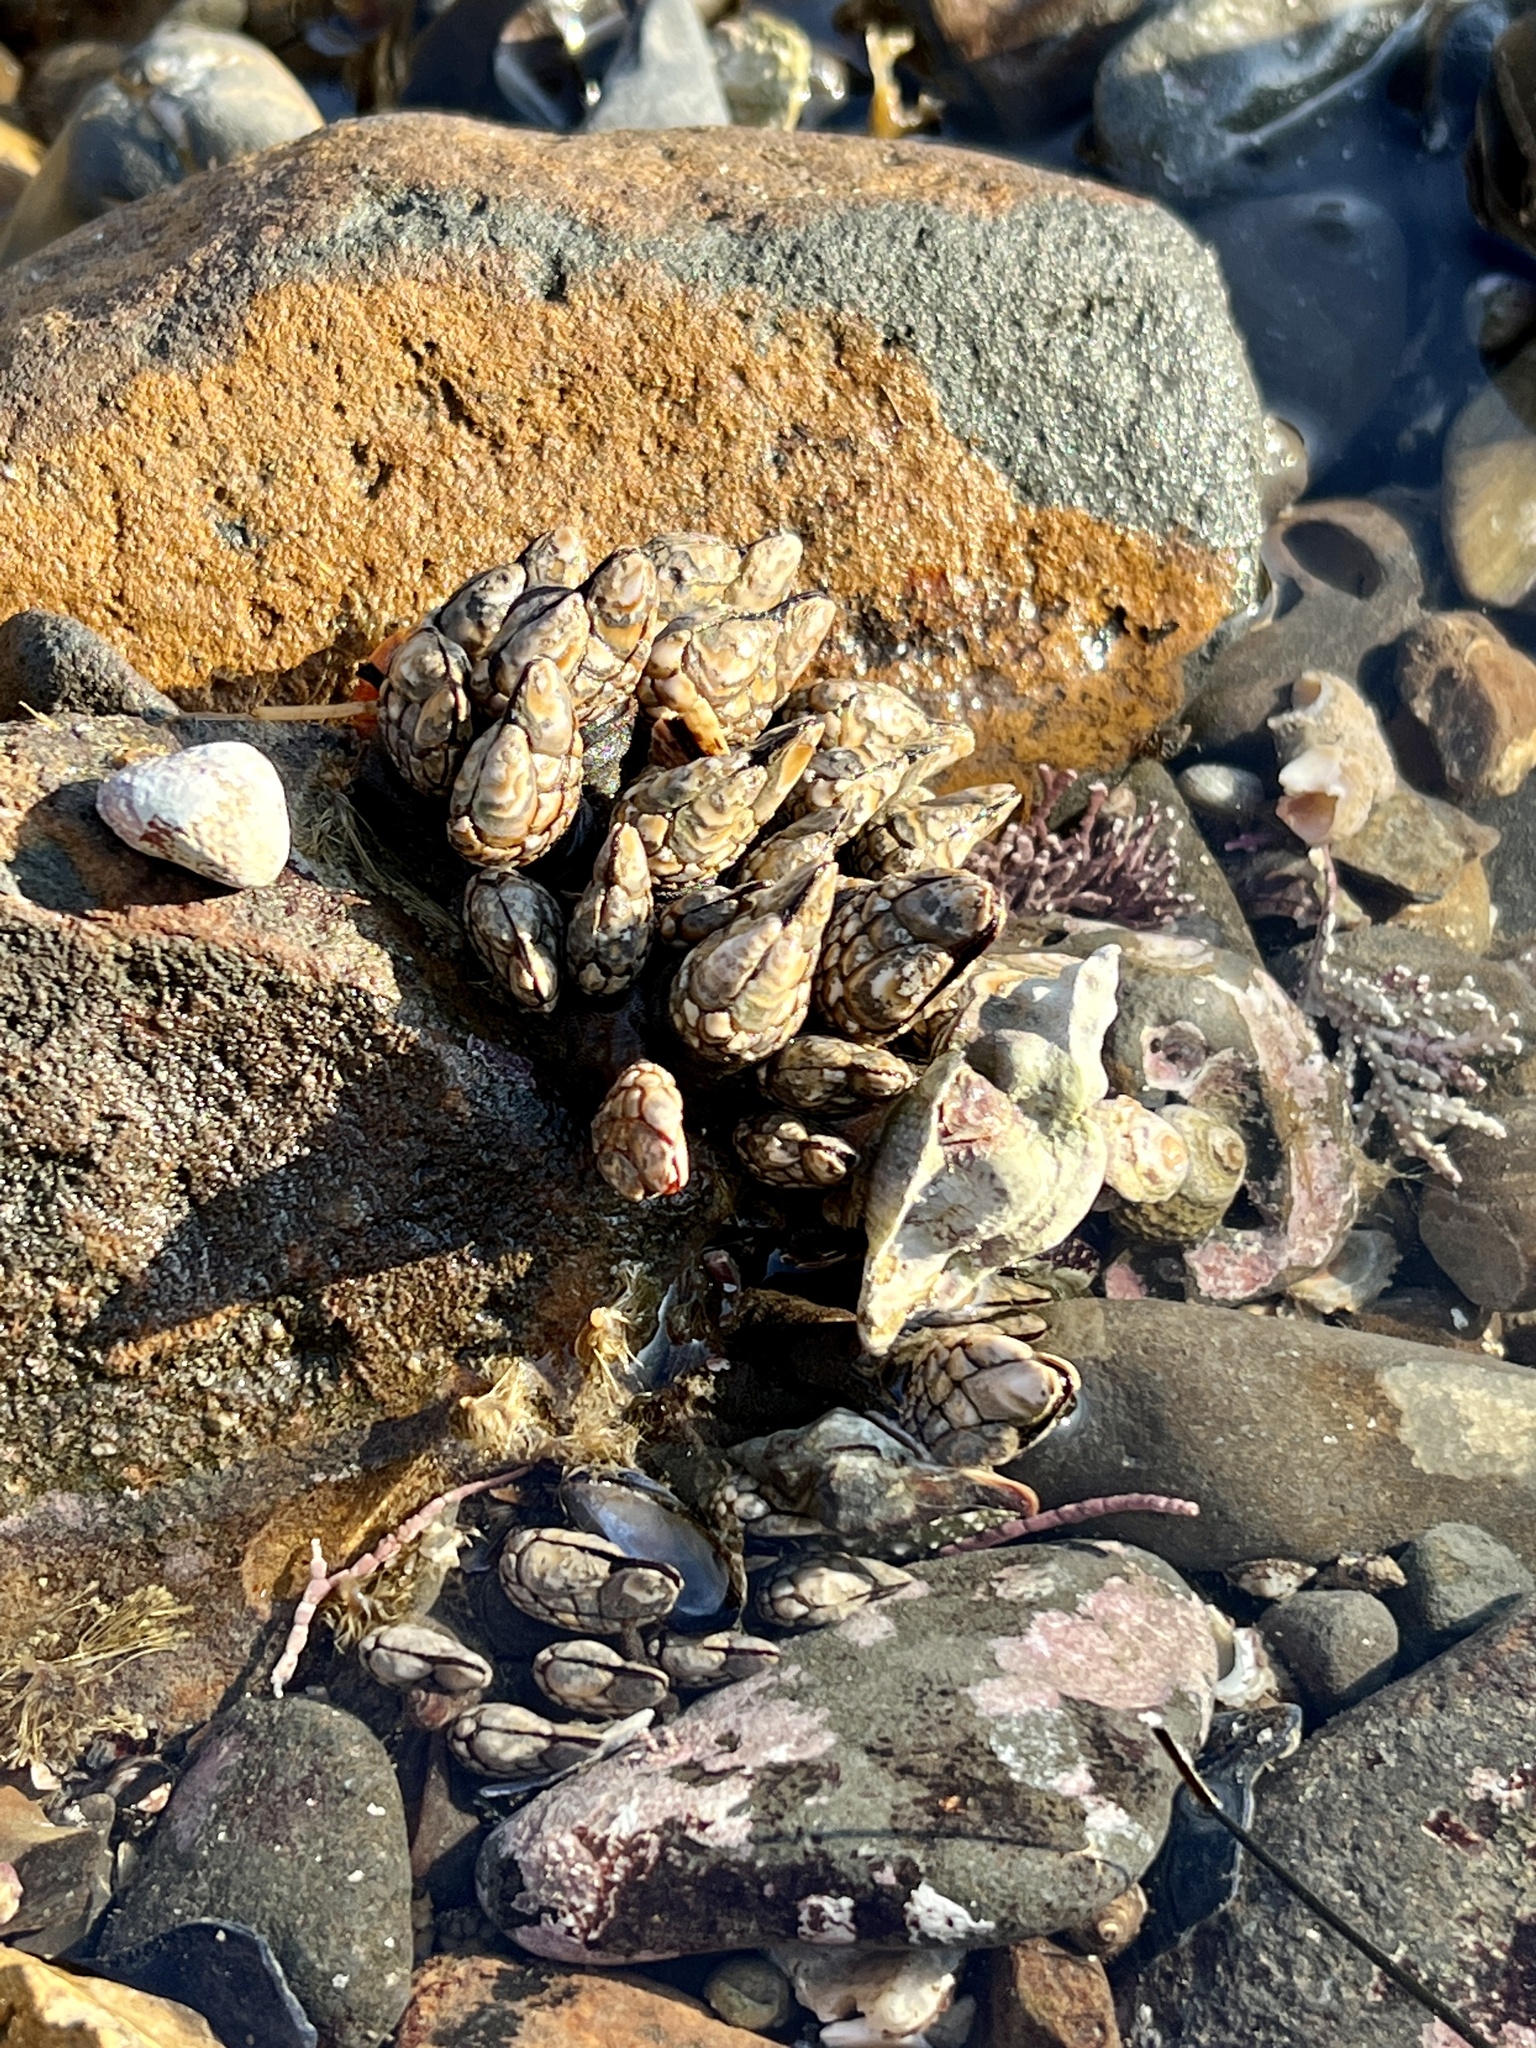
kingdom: Animalia
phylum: Arthropoda
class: Maxillopoda
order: Pedunculata
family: Pollicipedidae
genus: Pollicipes
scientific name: Pollicipes polymerus
